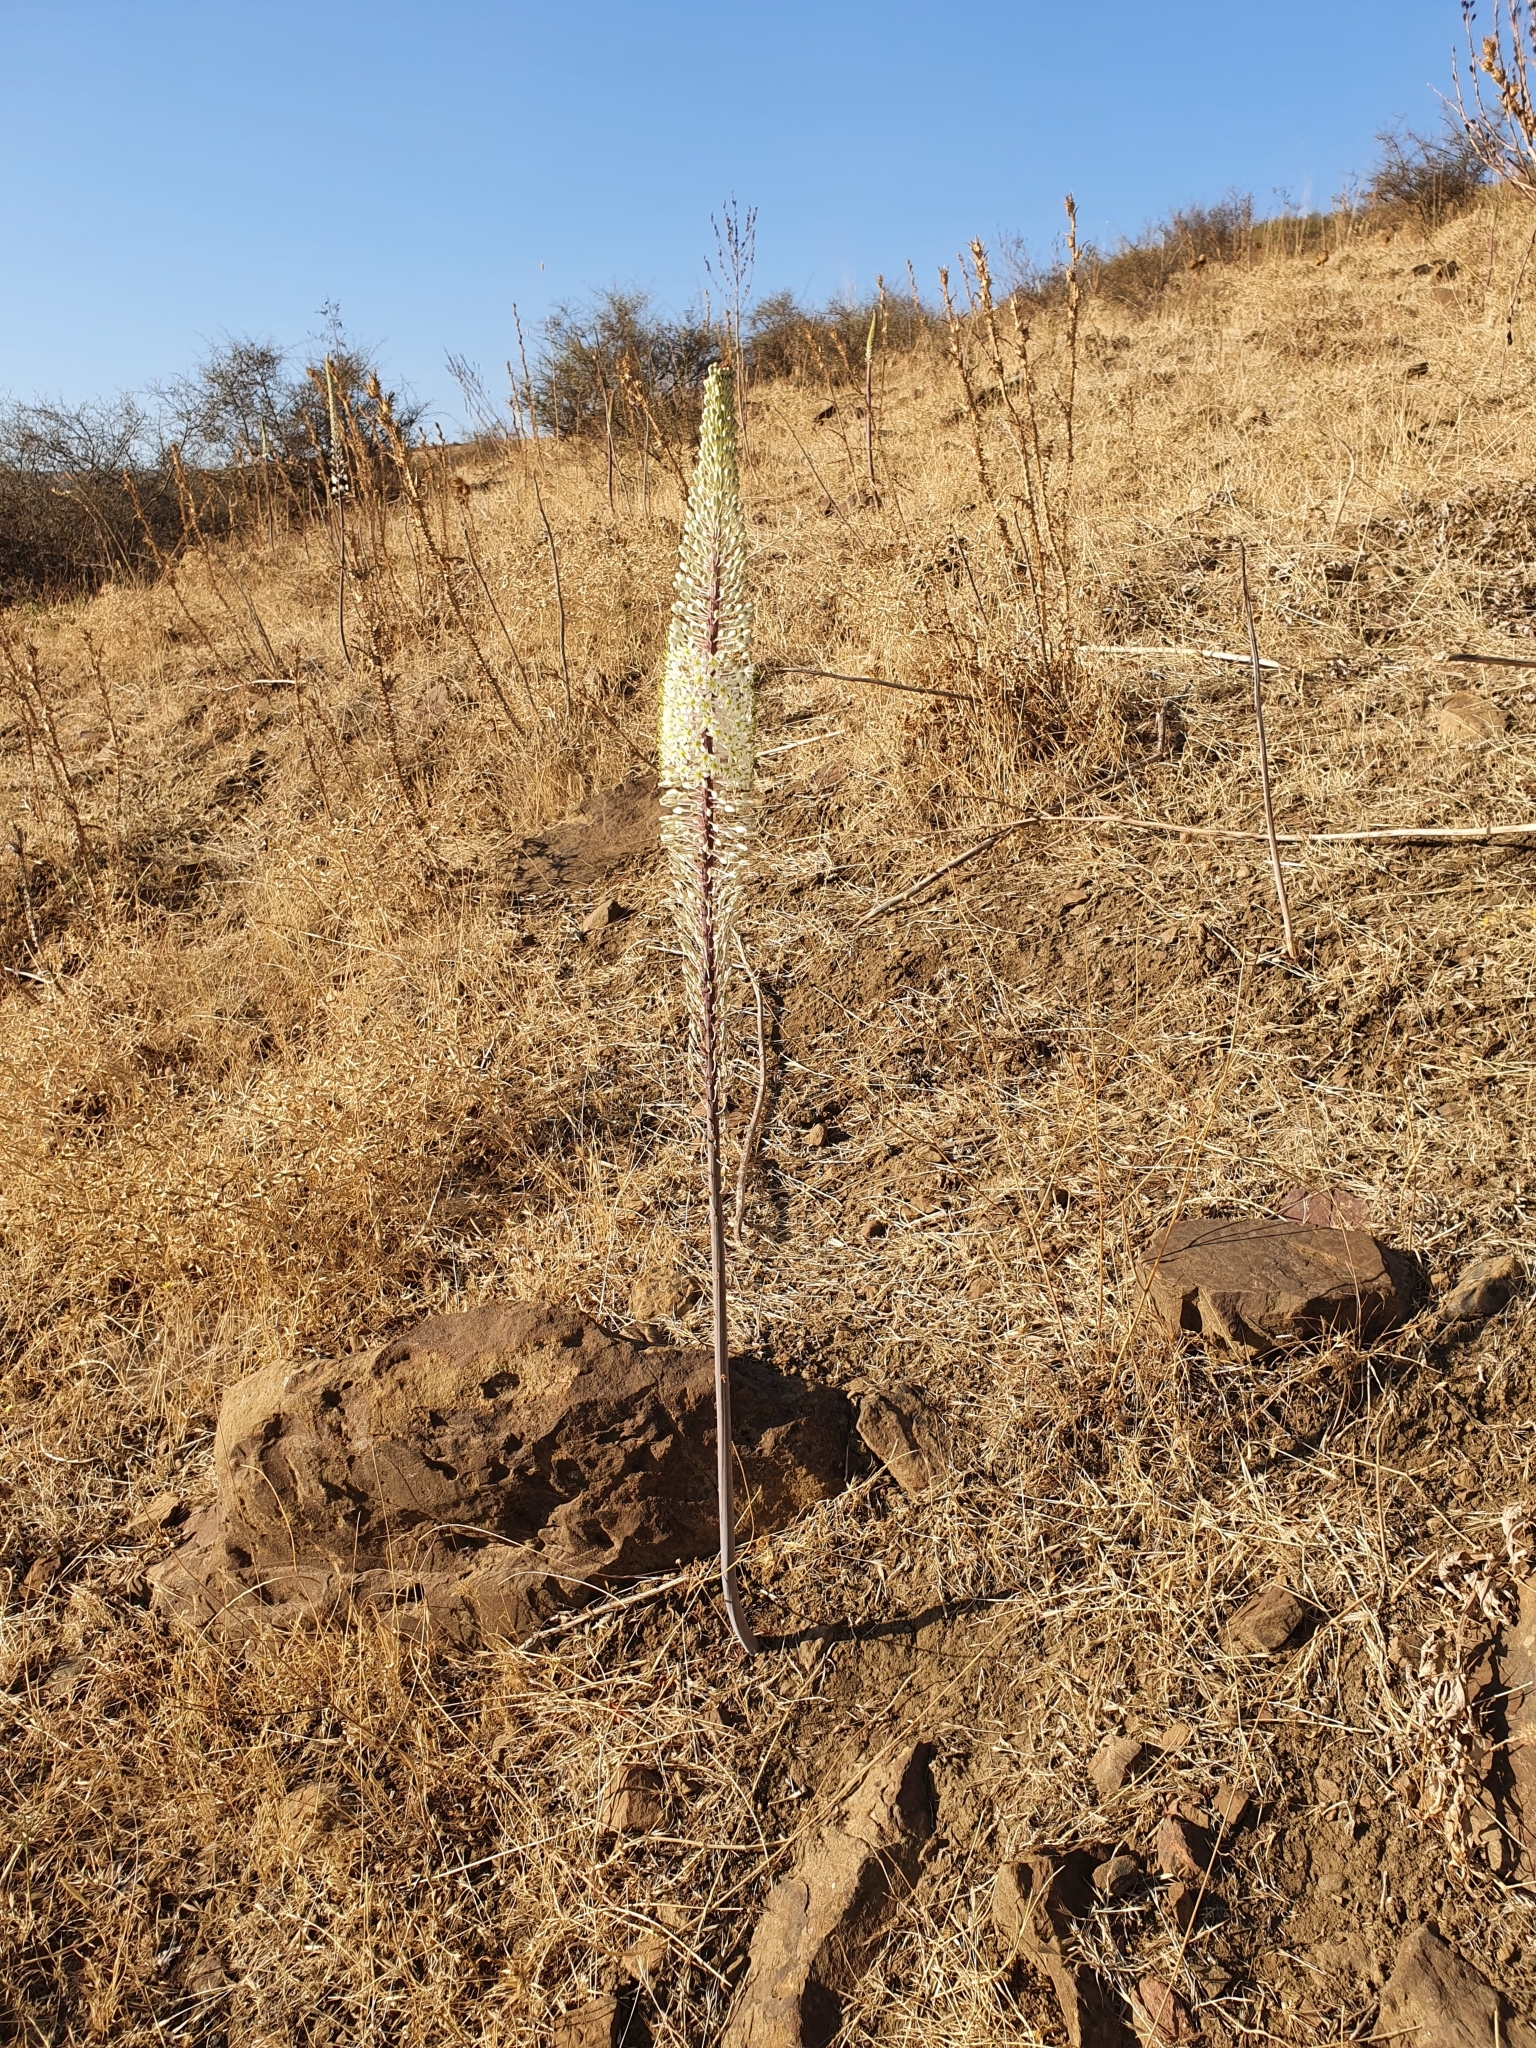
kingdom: Plantae
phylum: Tracheophyta
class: Liliopsida
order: Asparagales
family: Asparagaceae
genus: Drimia
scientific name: Drimia numidica
